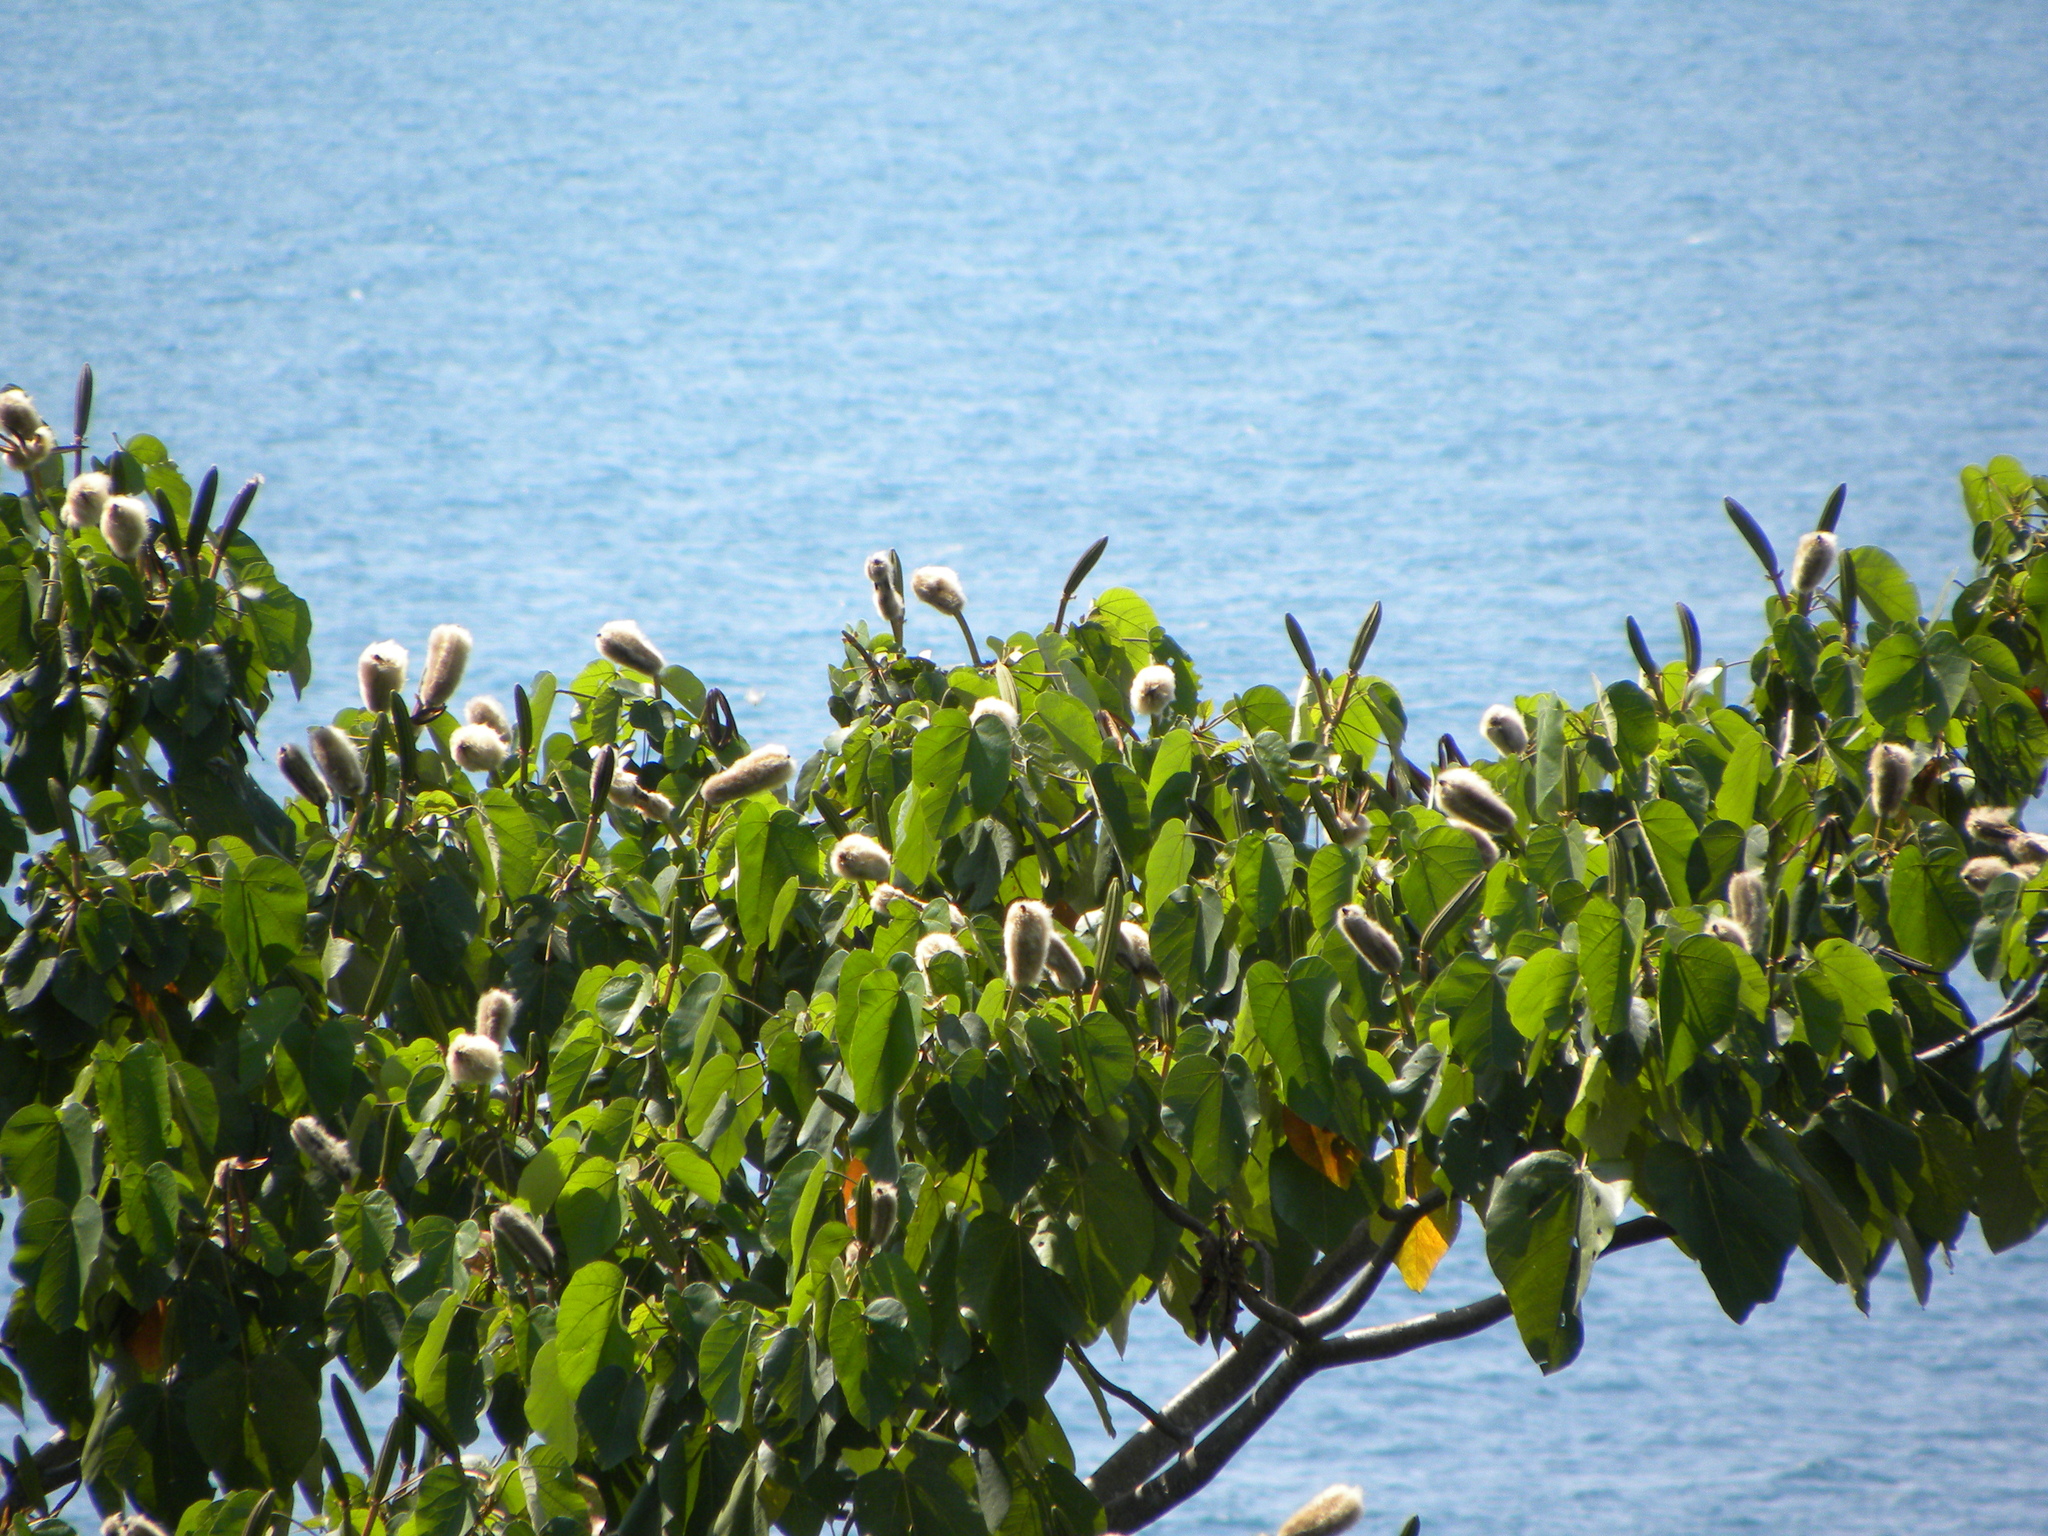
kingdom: Plantae
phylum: Tracheophyta
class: Magnoliopsida
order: Malvales
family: Malvaceae
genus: Ochroma
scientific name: Ochroma pyramidale
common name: Balsa
